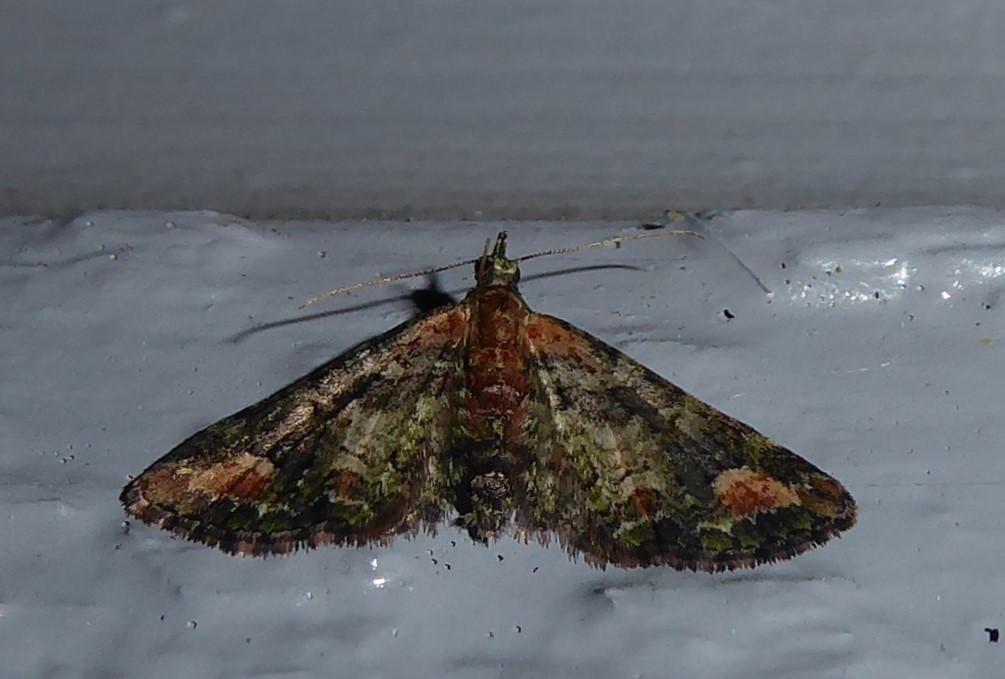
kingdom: Animalia
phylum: Arthropoda
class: Insecta
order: Lepidoptera
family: Geometridae
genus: Idaea
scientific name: Idaea mutanda
